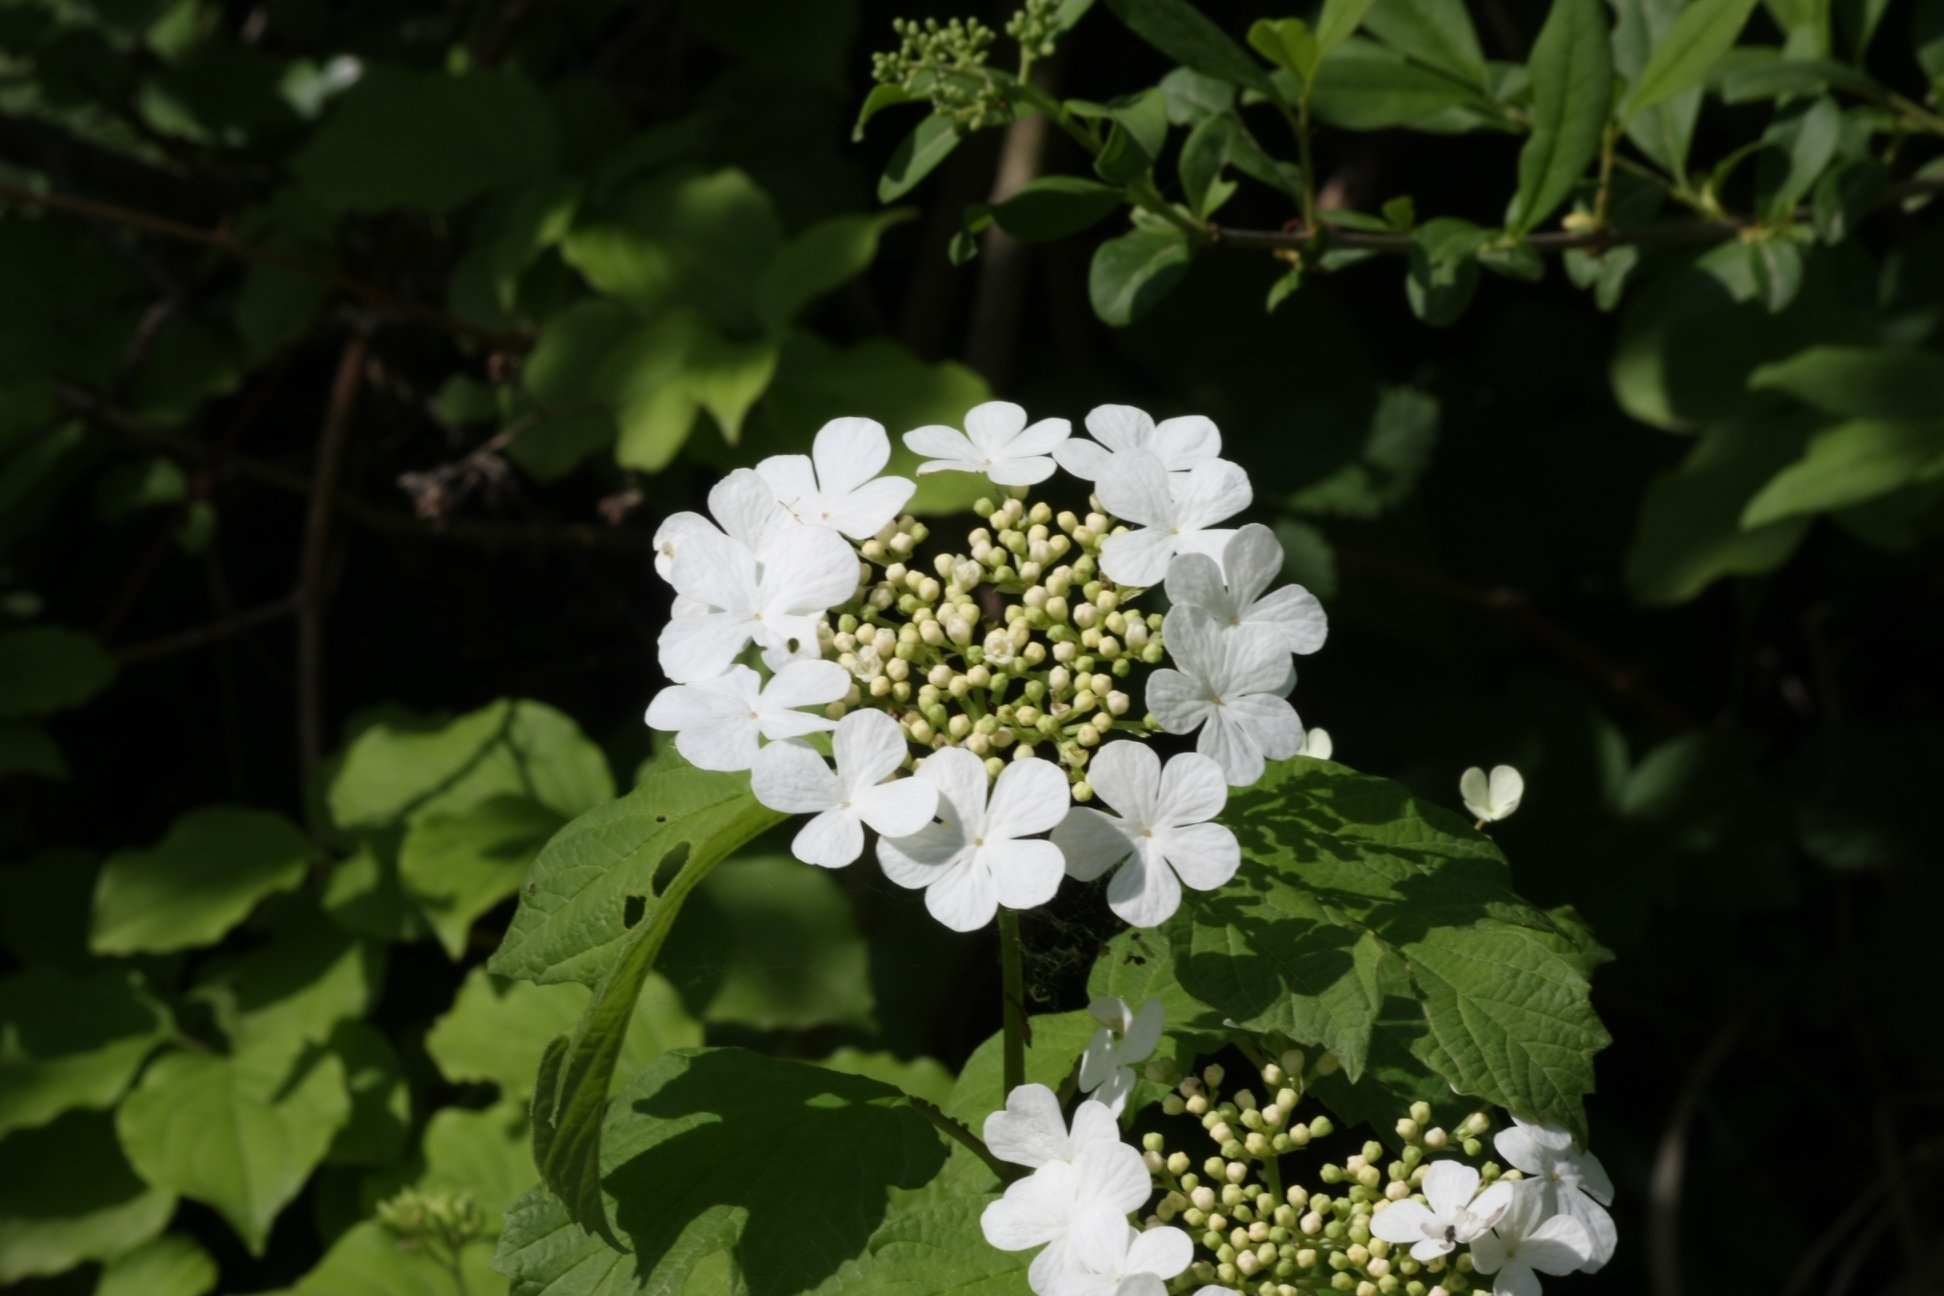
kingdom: Plantae
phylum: Tracheophyta
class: Magnoliopsida
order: Dipsacales
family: Viburnaceae
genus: Viburnum
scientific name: Viburnum opulus
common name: Guelder-rose
